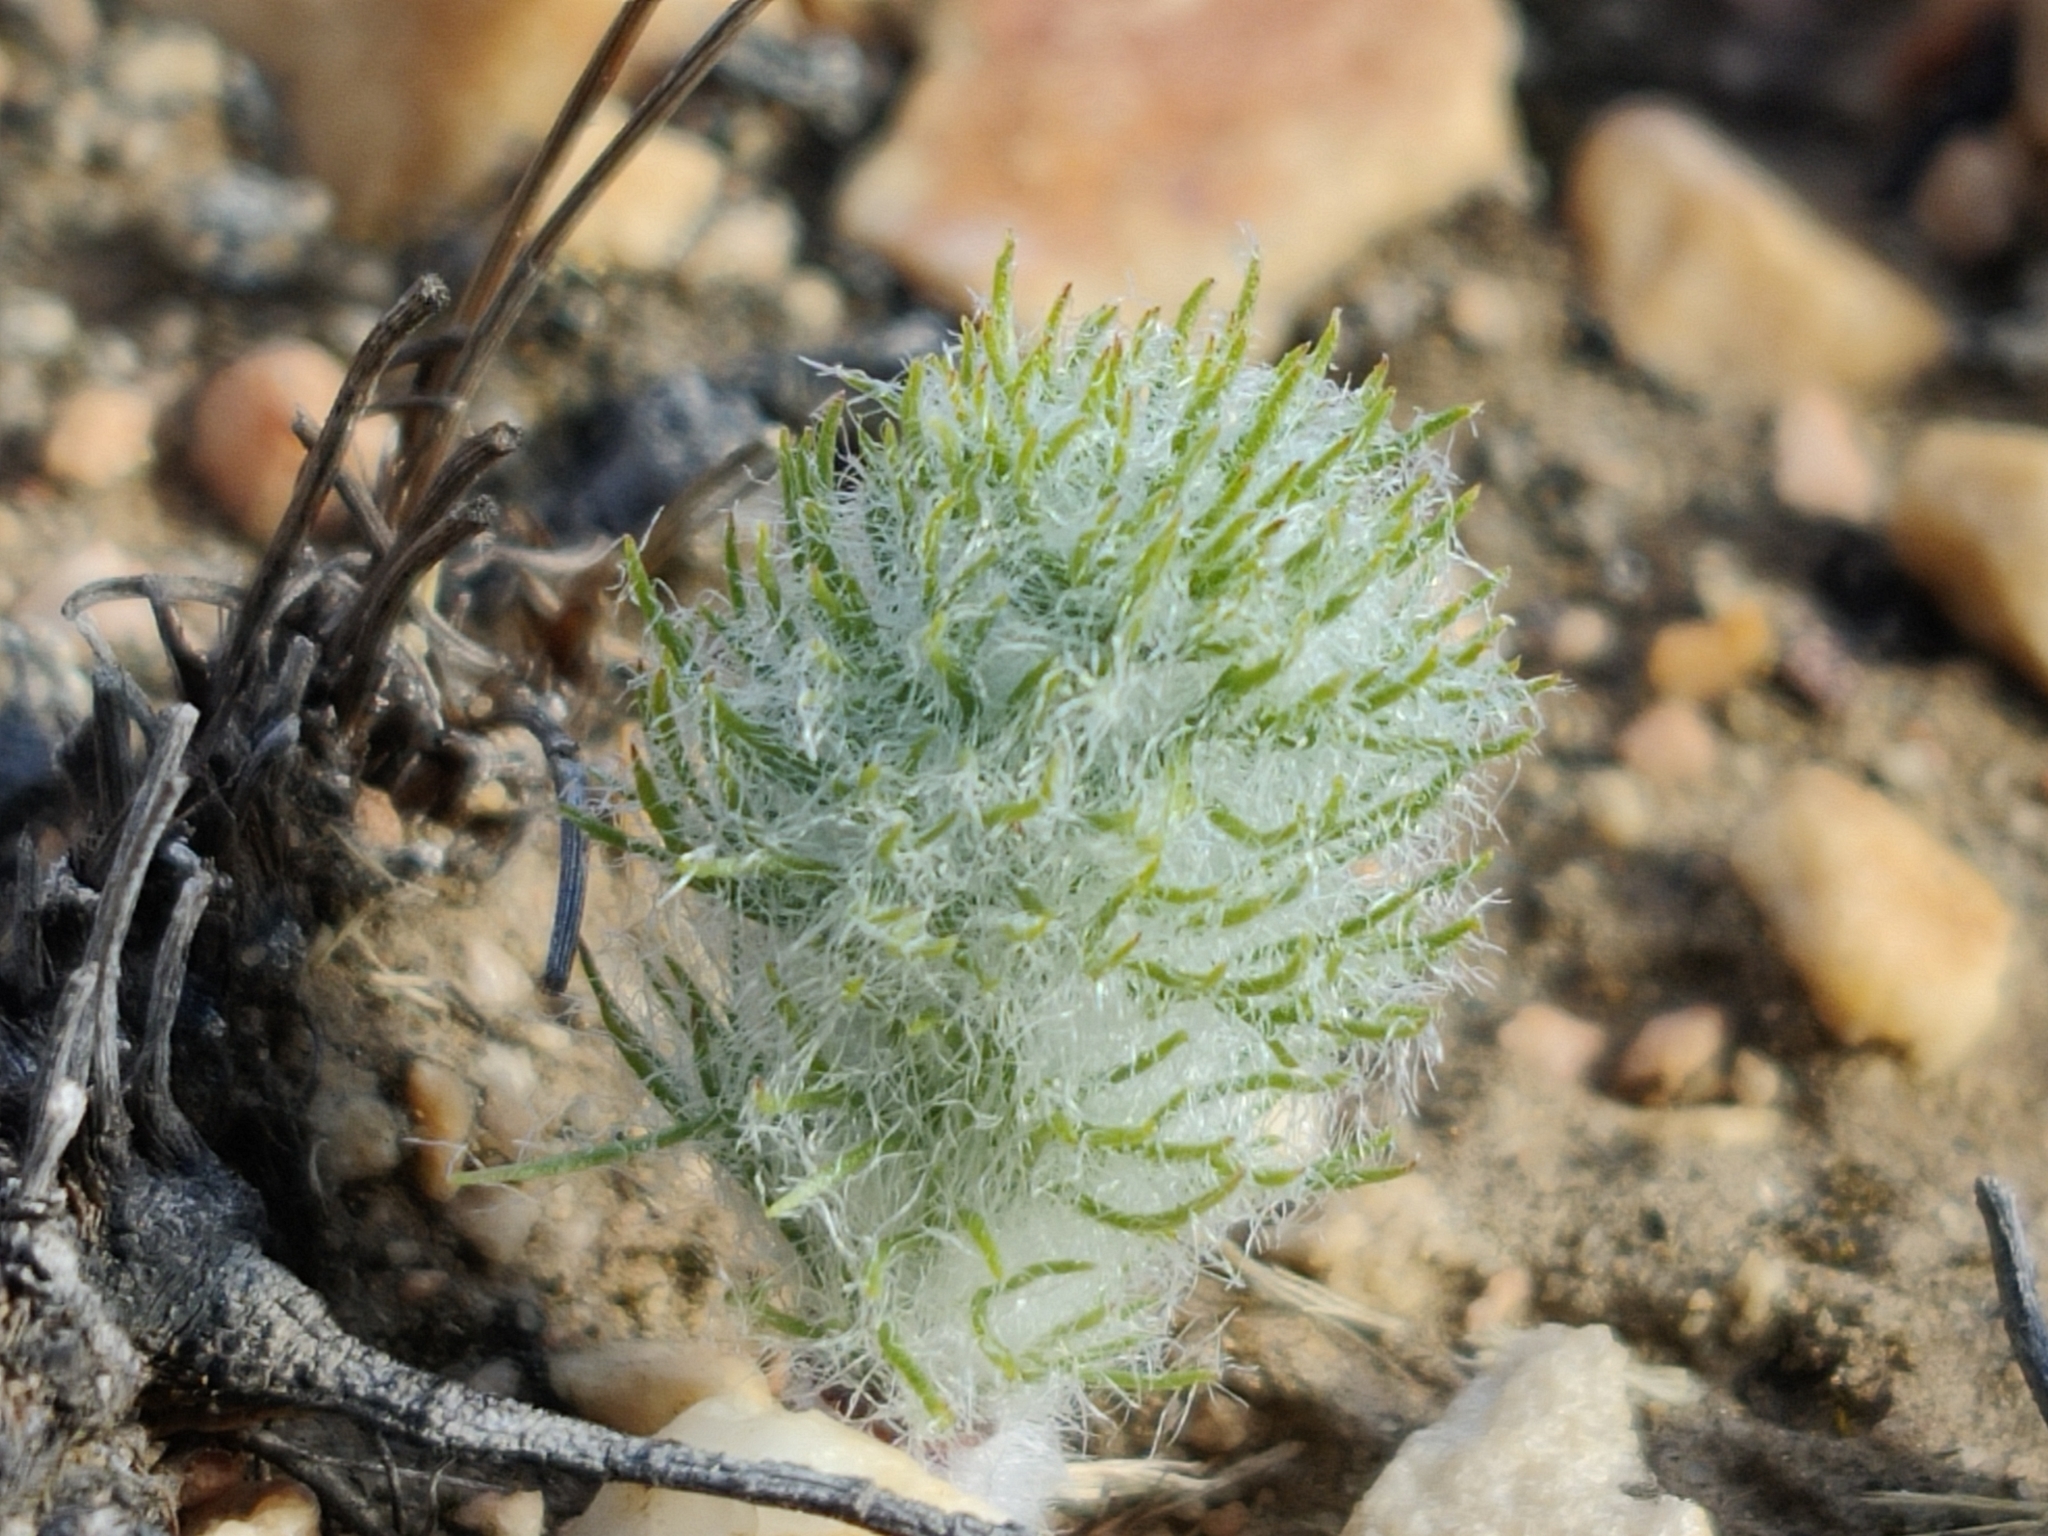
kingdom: Plantae
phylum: Tracheophyta
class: Liliopsida
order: Asparagales
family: Asparagaceae
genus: Eriospermum
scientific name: Eriospermum paradoxum
